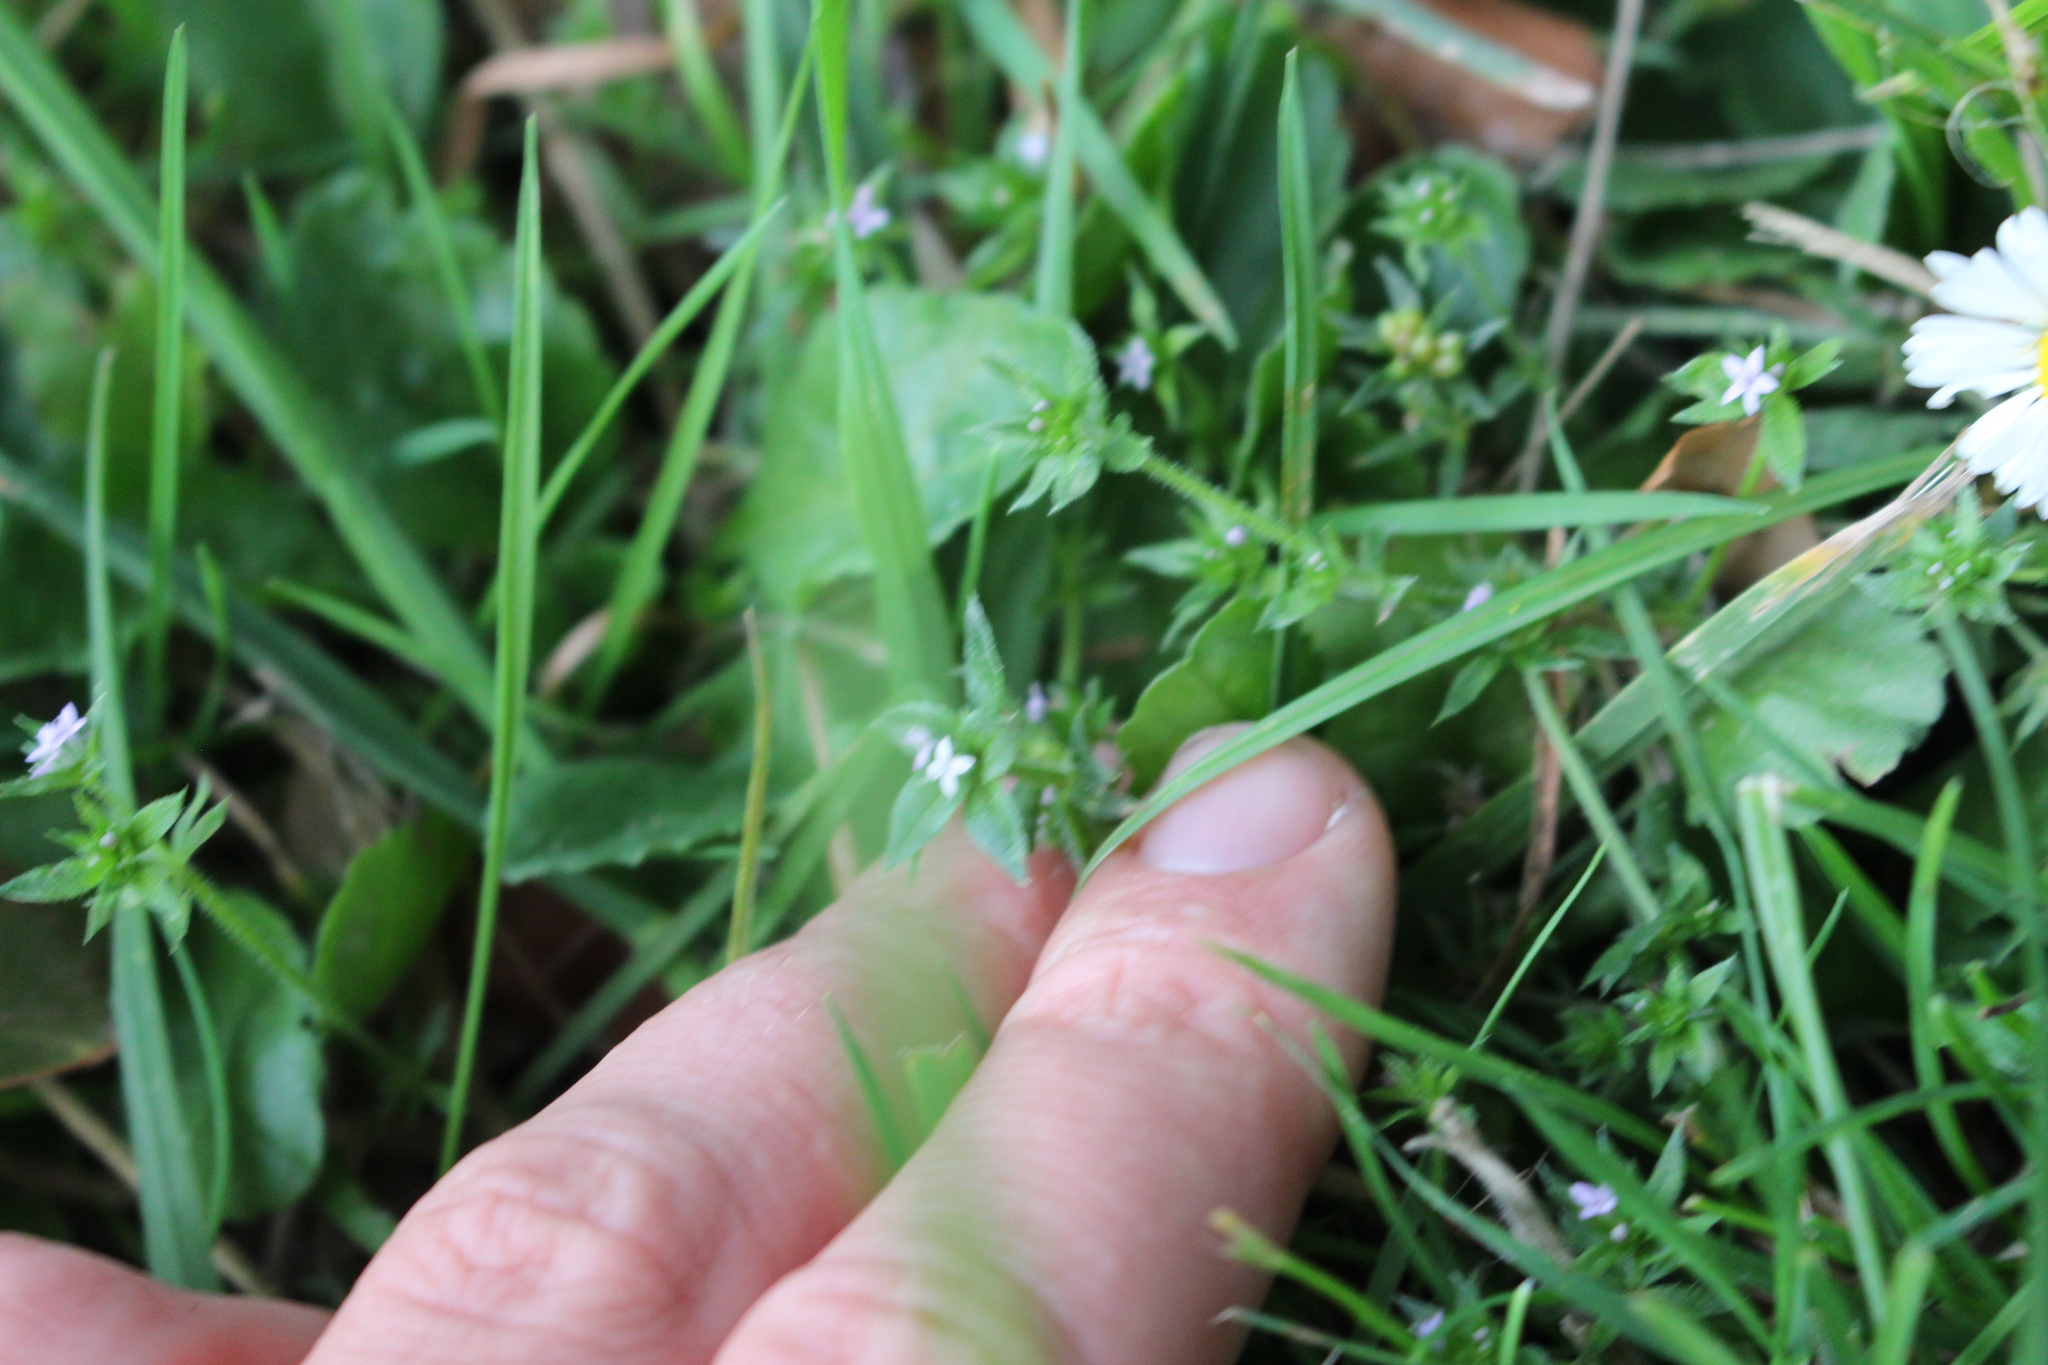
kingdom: Plantae
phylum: Tracheophyta
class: Magnoliopsida
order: Gentianales
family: Rubiaceae
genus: Sherardia
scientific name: Sherardia arvensis
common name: Field madder
